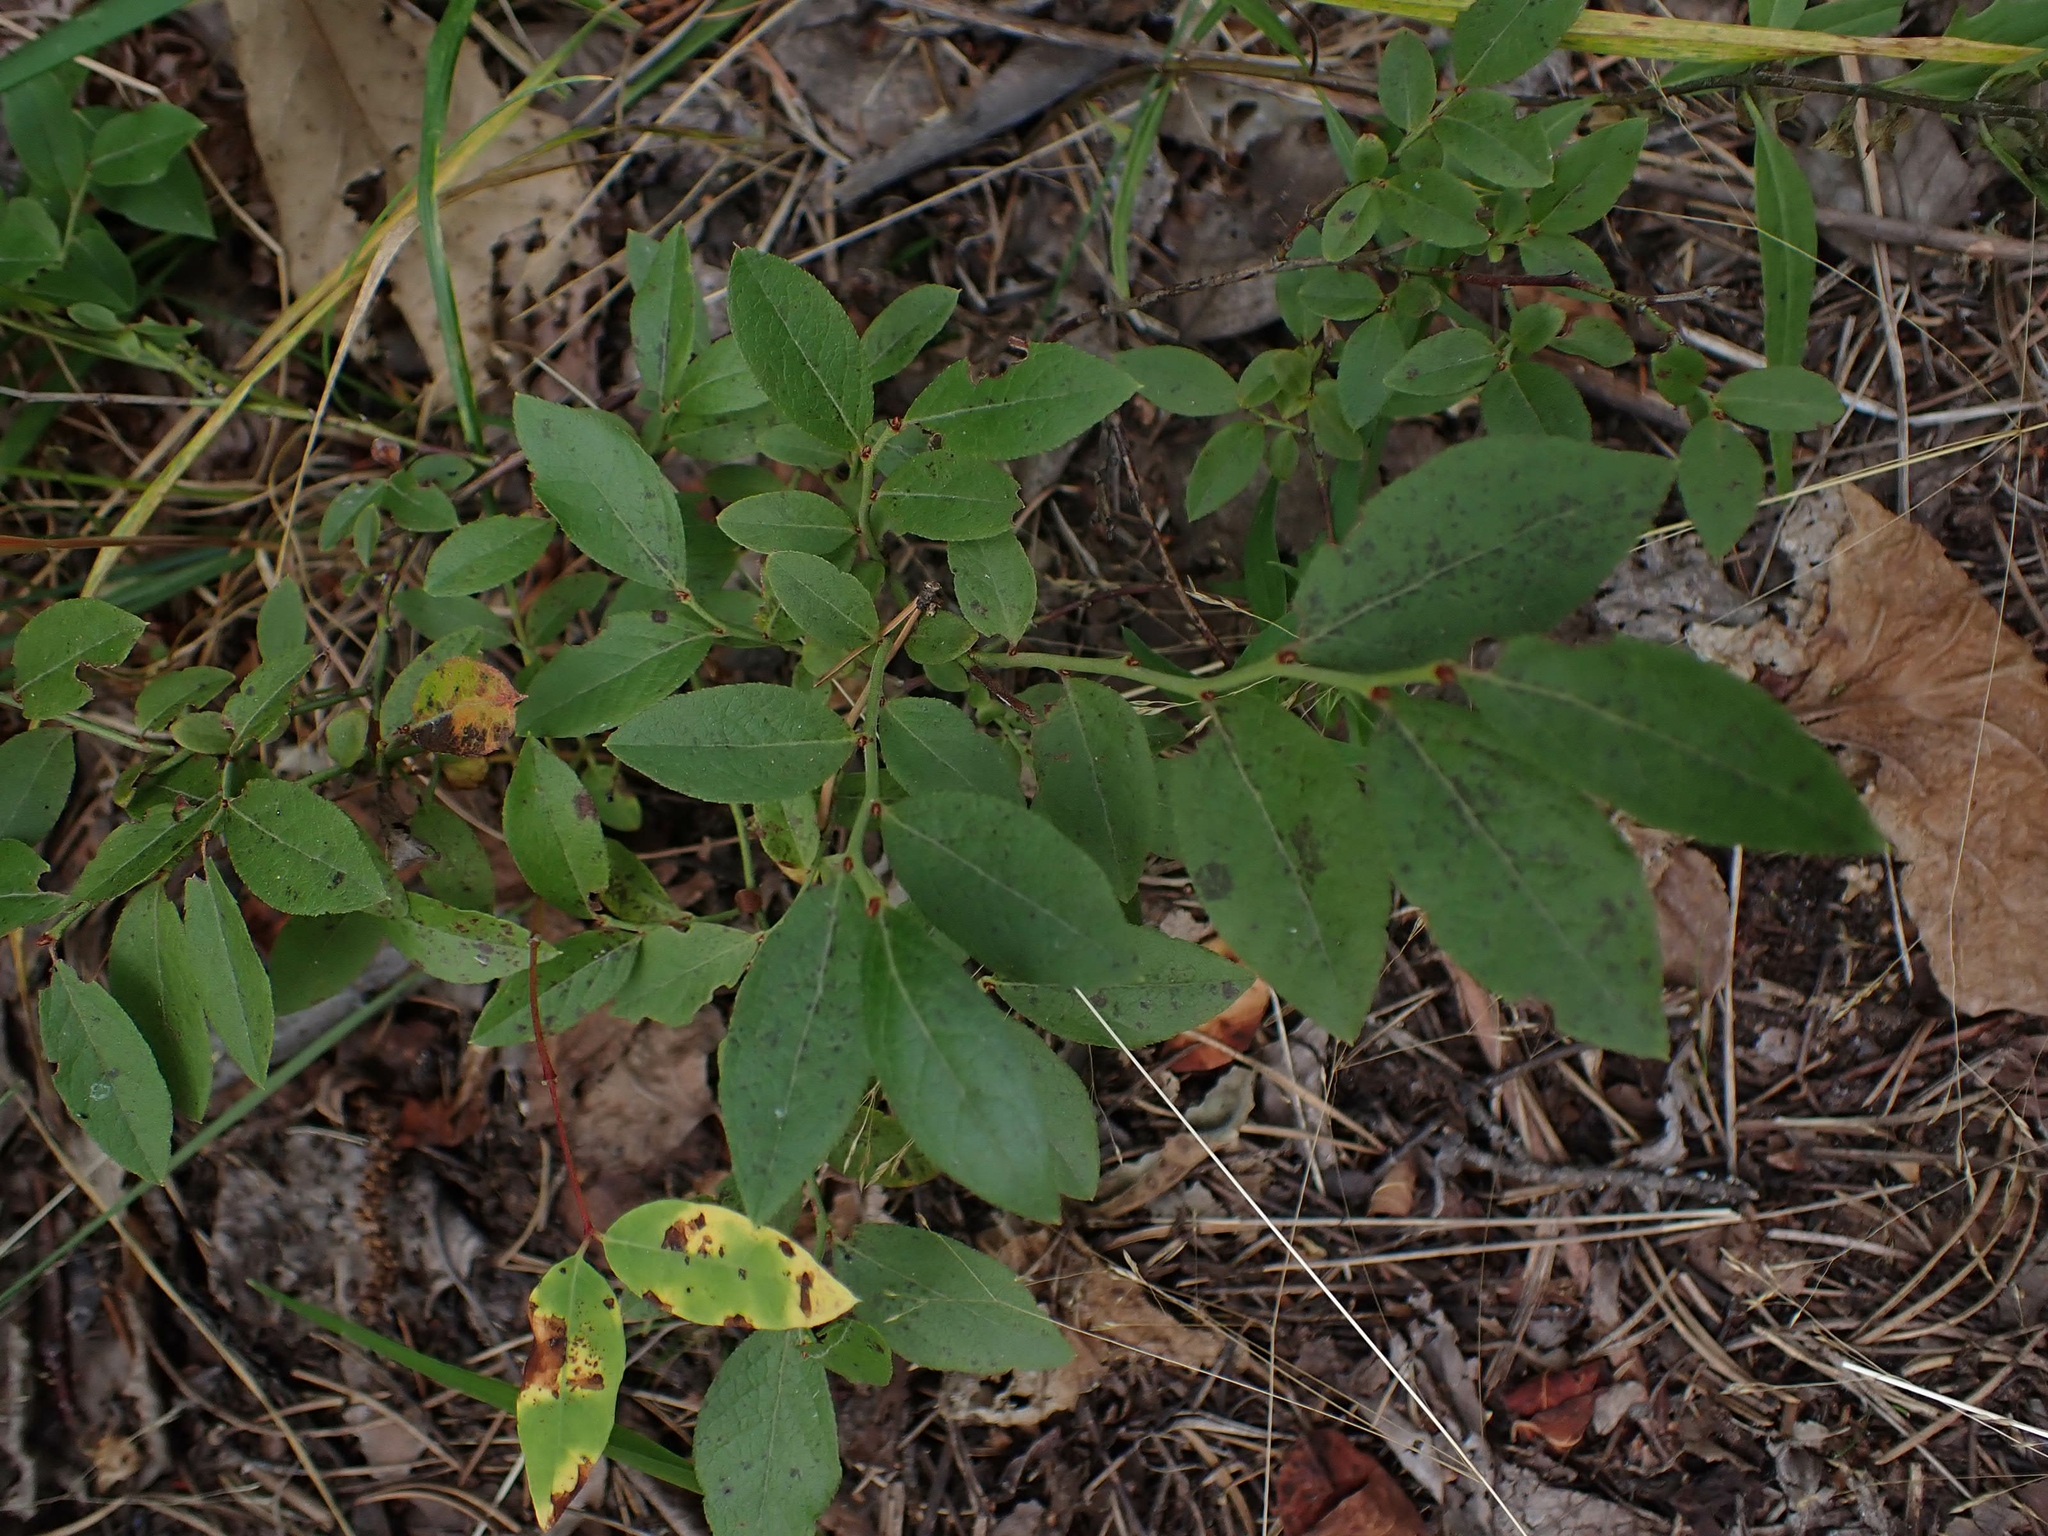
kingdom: Plantae
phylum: Tracheophyta
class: Magnoliopsida
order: Ericales
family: Ericaceae
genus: Vaccinium
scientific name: Vaccinium angustifolium
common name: Early lowbush blueberry
